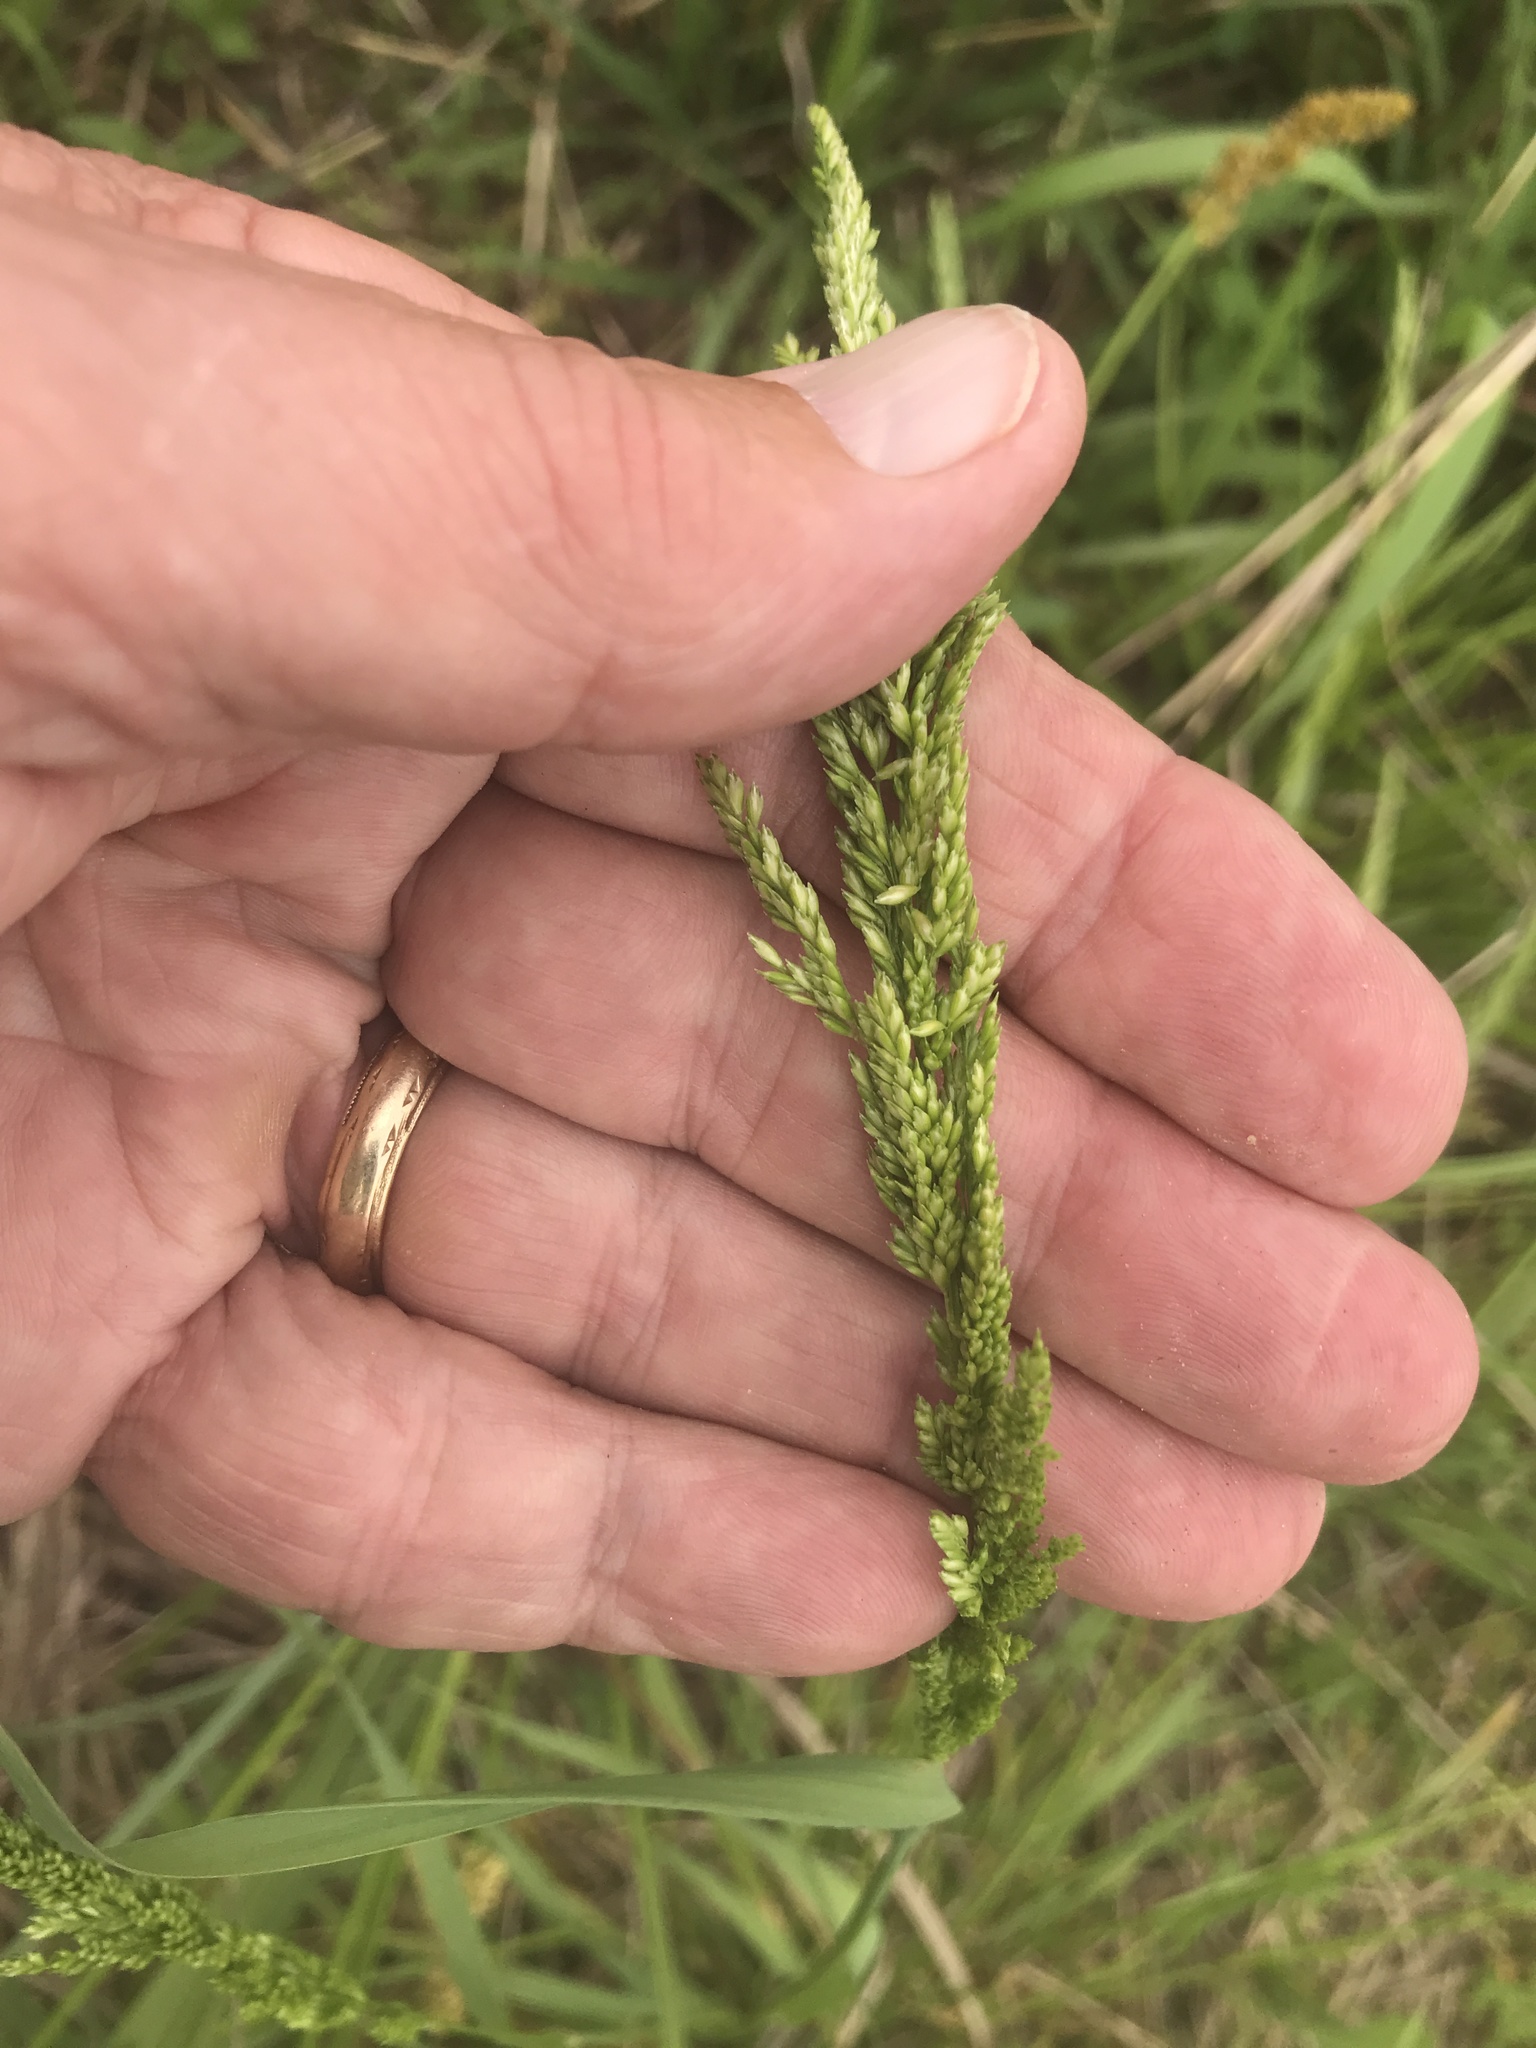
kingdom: Plantae
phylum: Tracheophyta
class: Liliopsida
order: Poales
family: Poaceae
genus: Sphenopholis
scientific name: Sphenopholis obtusata
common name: Prairie grass
